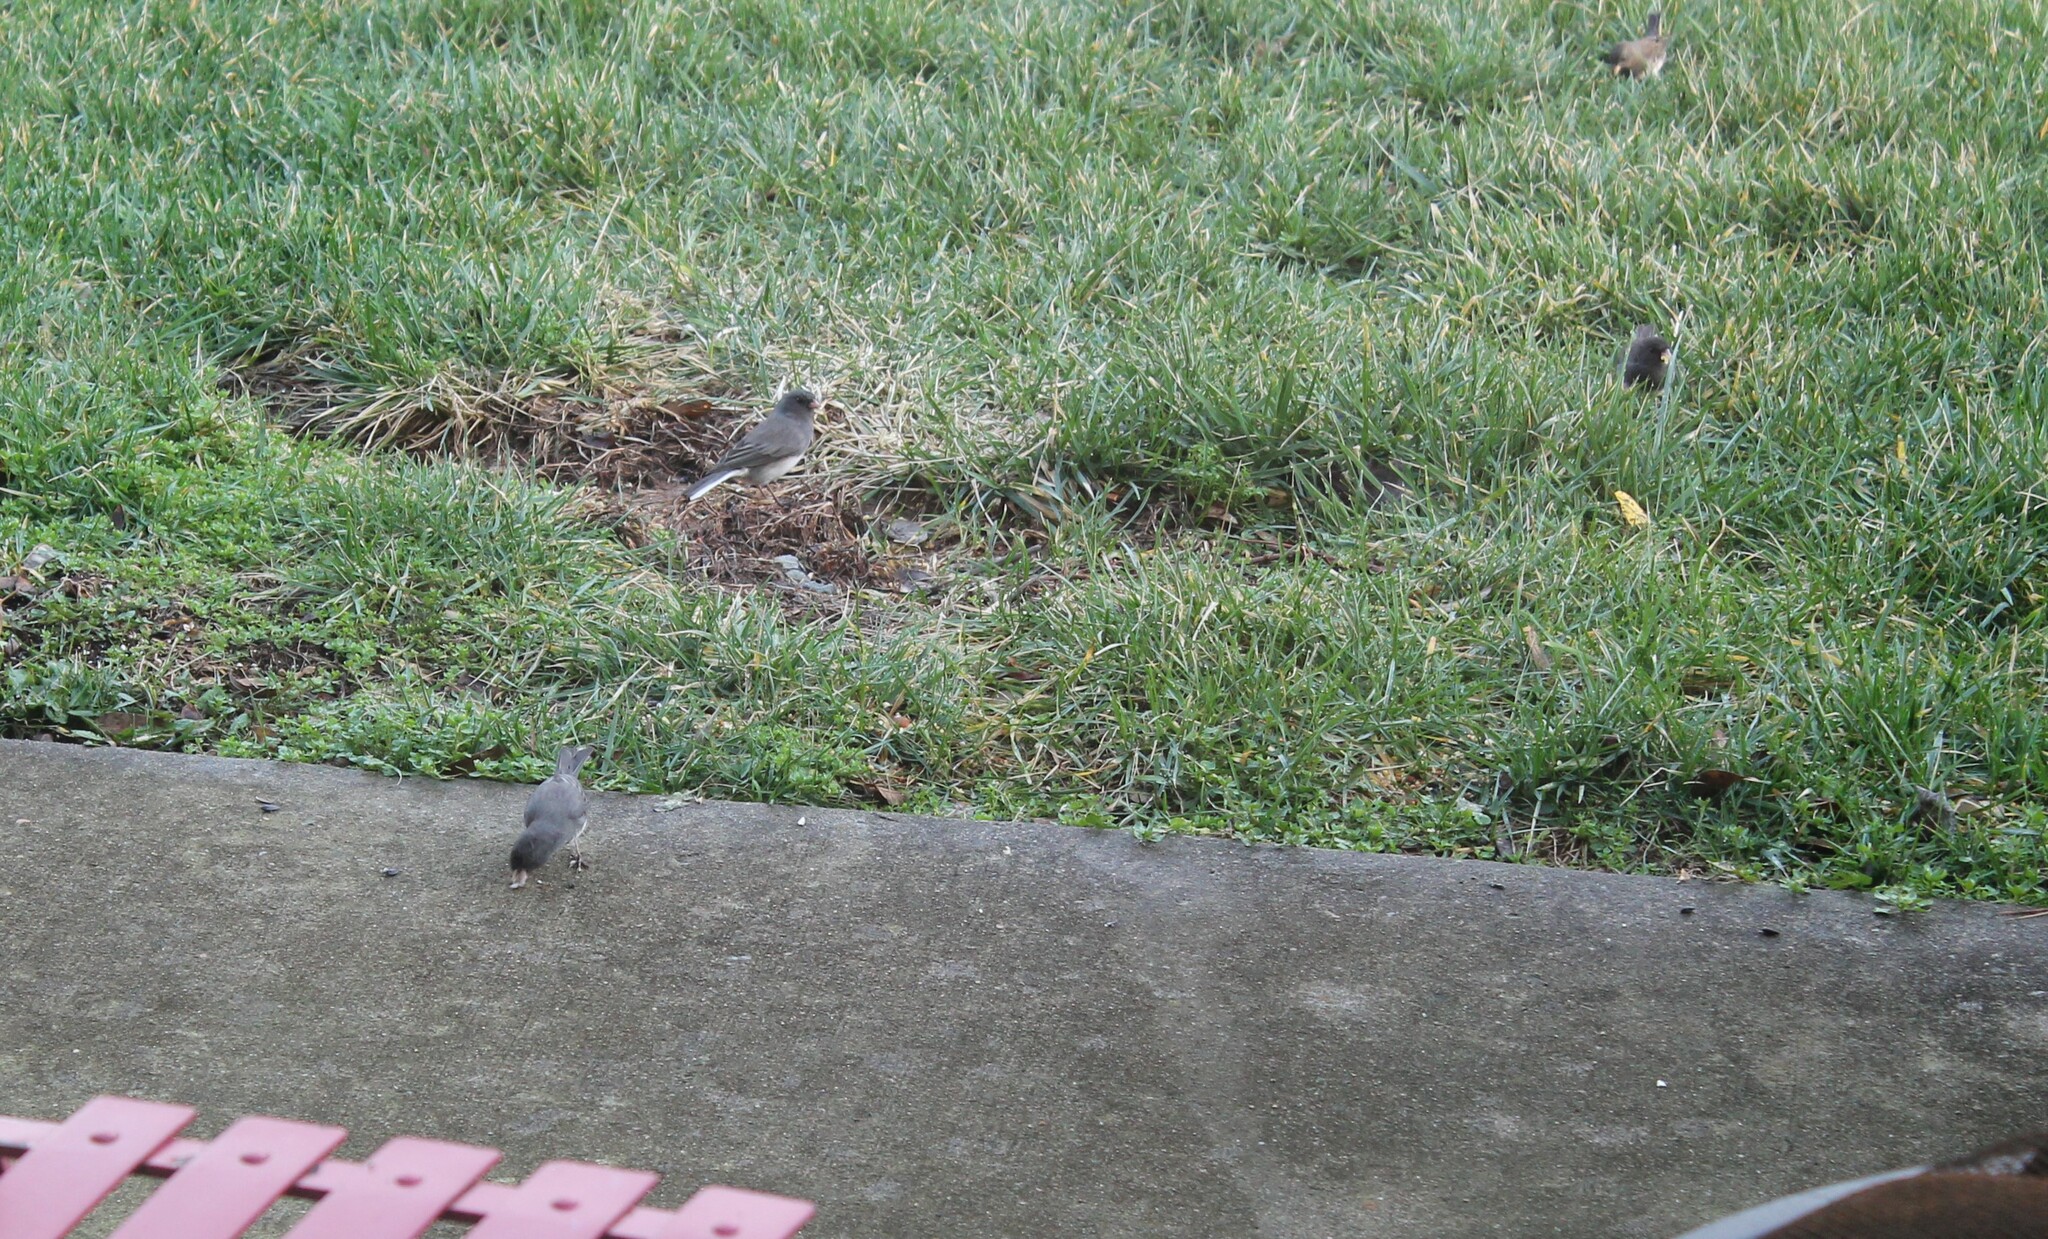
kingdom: Animalia
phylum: Chordata
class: Aves
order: Passeriformes
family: Passerellidae
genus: Junco
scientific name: Junco hyemalis
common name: Dark-eyed junco
